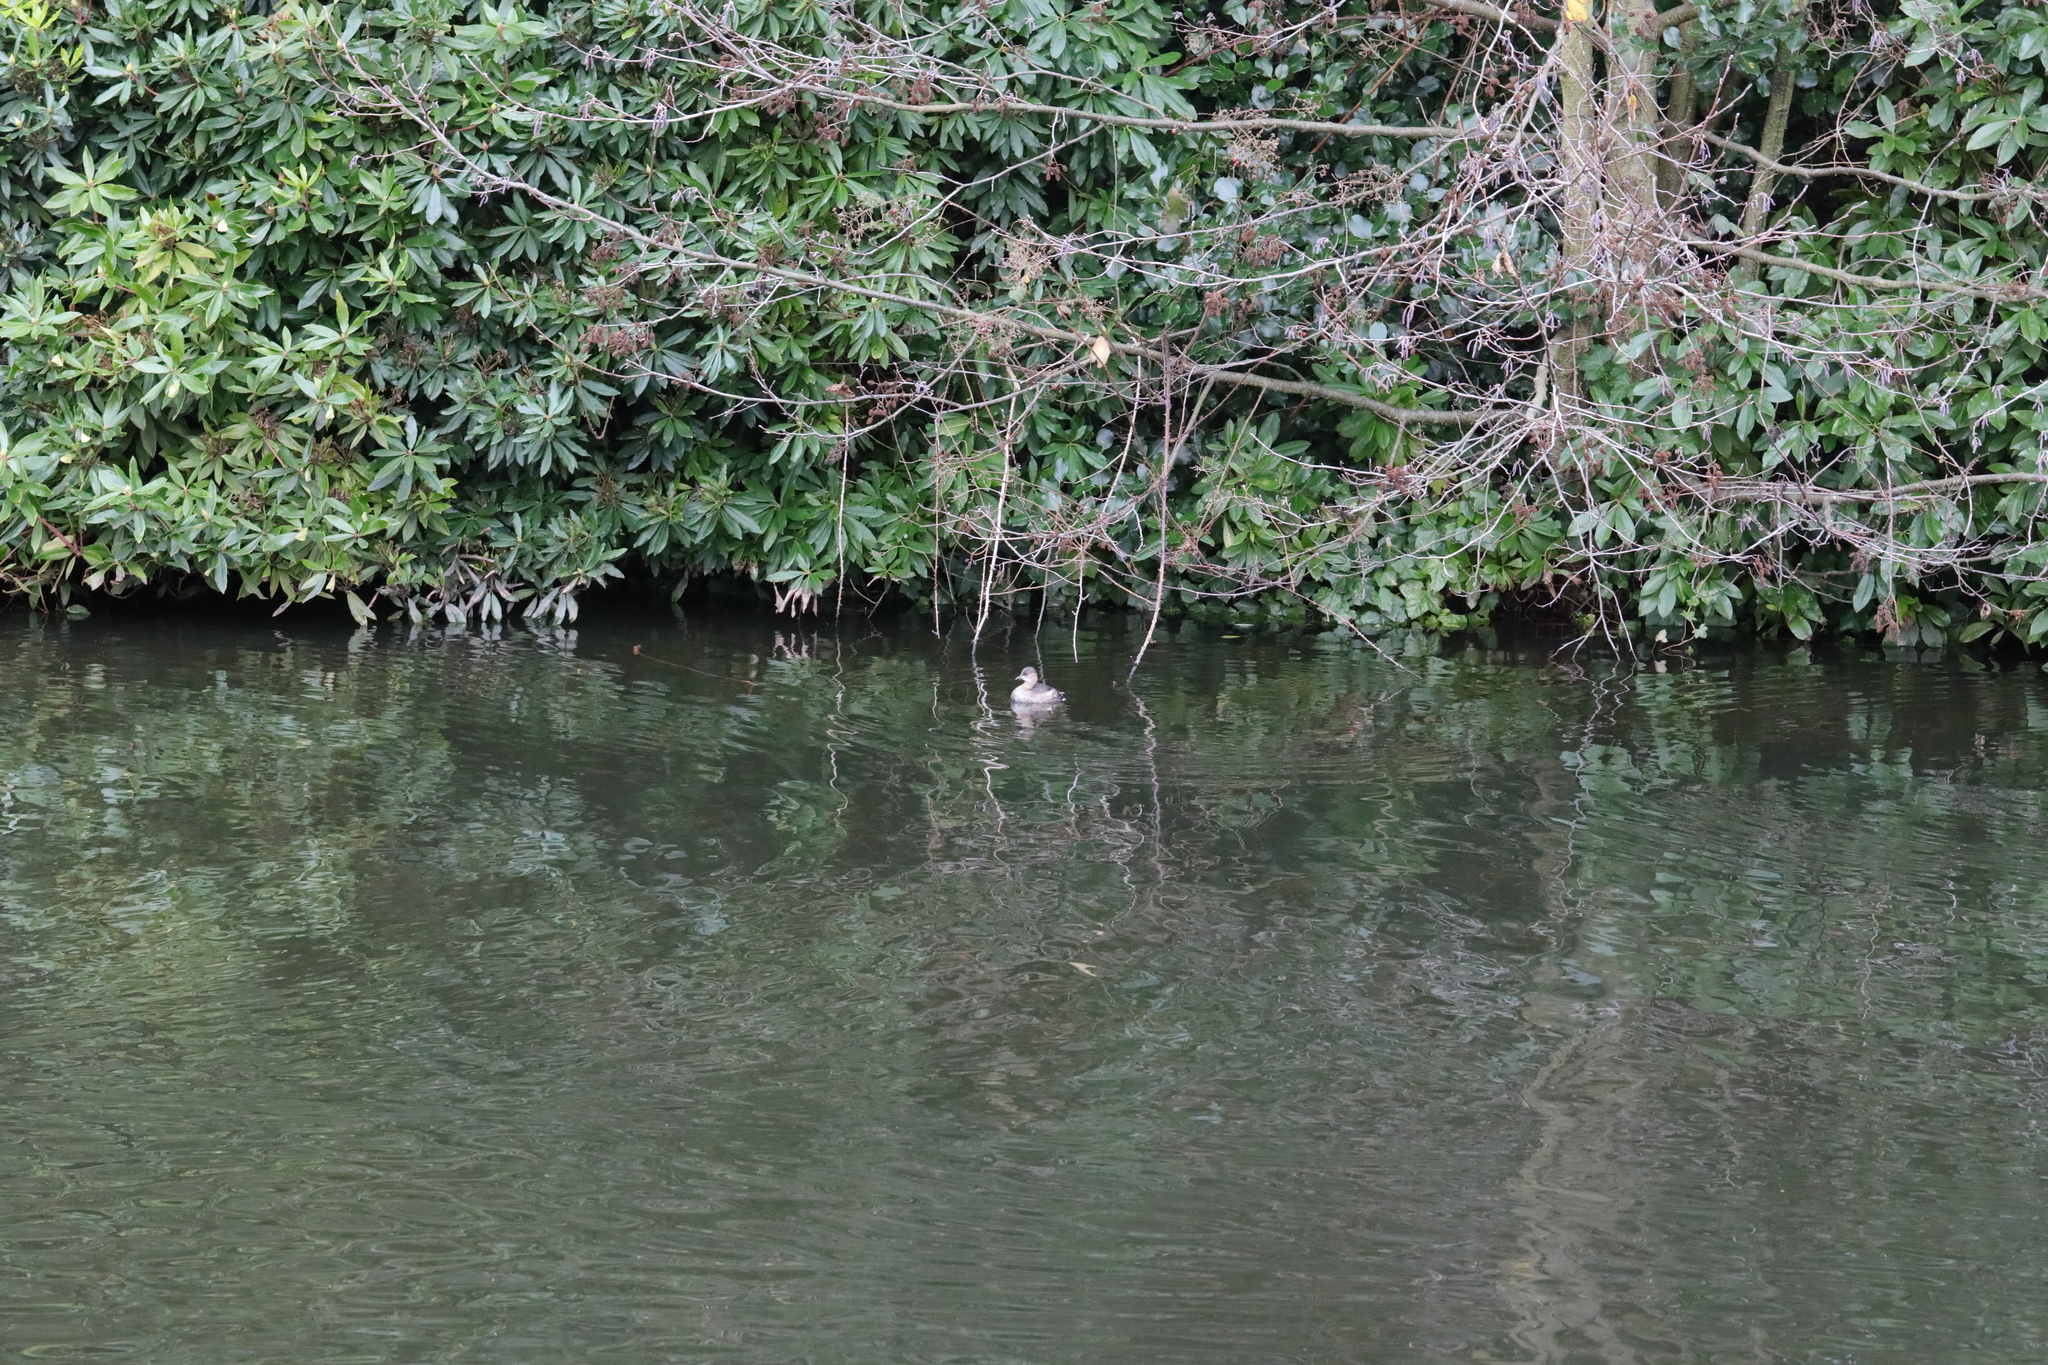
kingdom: Animalia
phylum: Chordata
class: Aves
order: Podicipediformes
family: Podicipedidae
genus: Tachybaptus
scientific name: Tachybaptus ruficollis
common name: Little grebe
